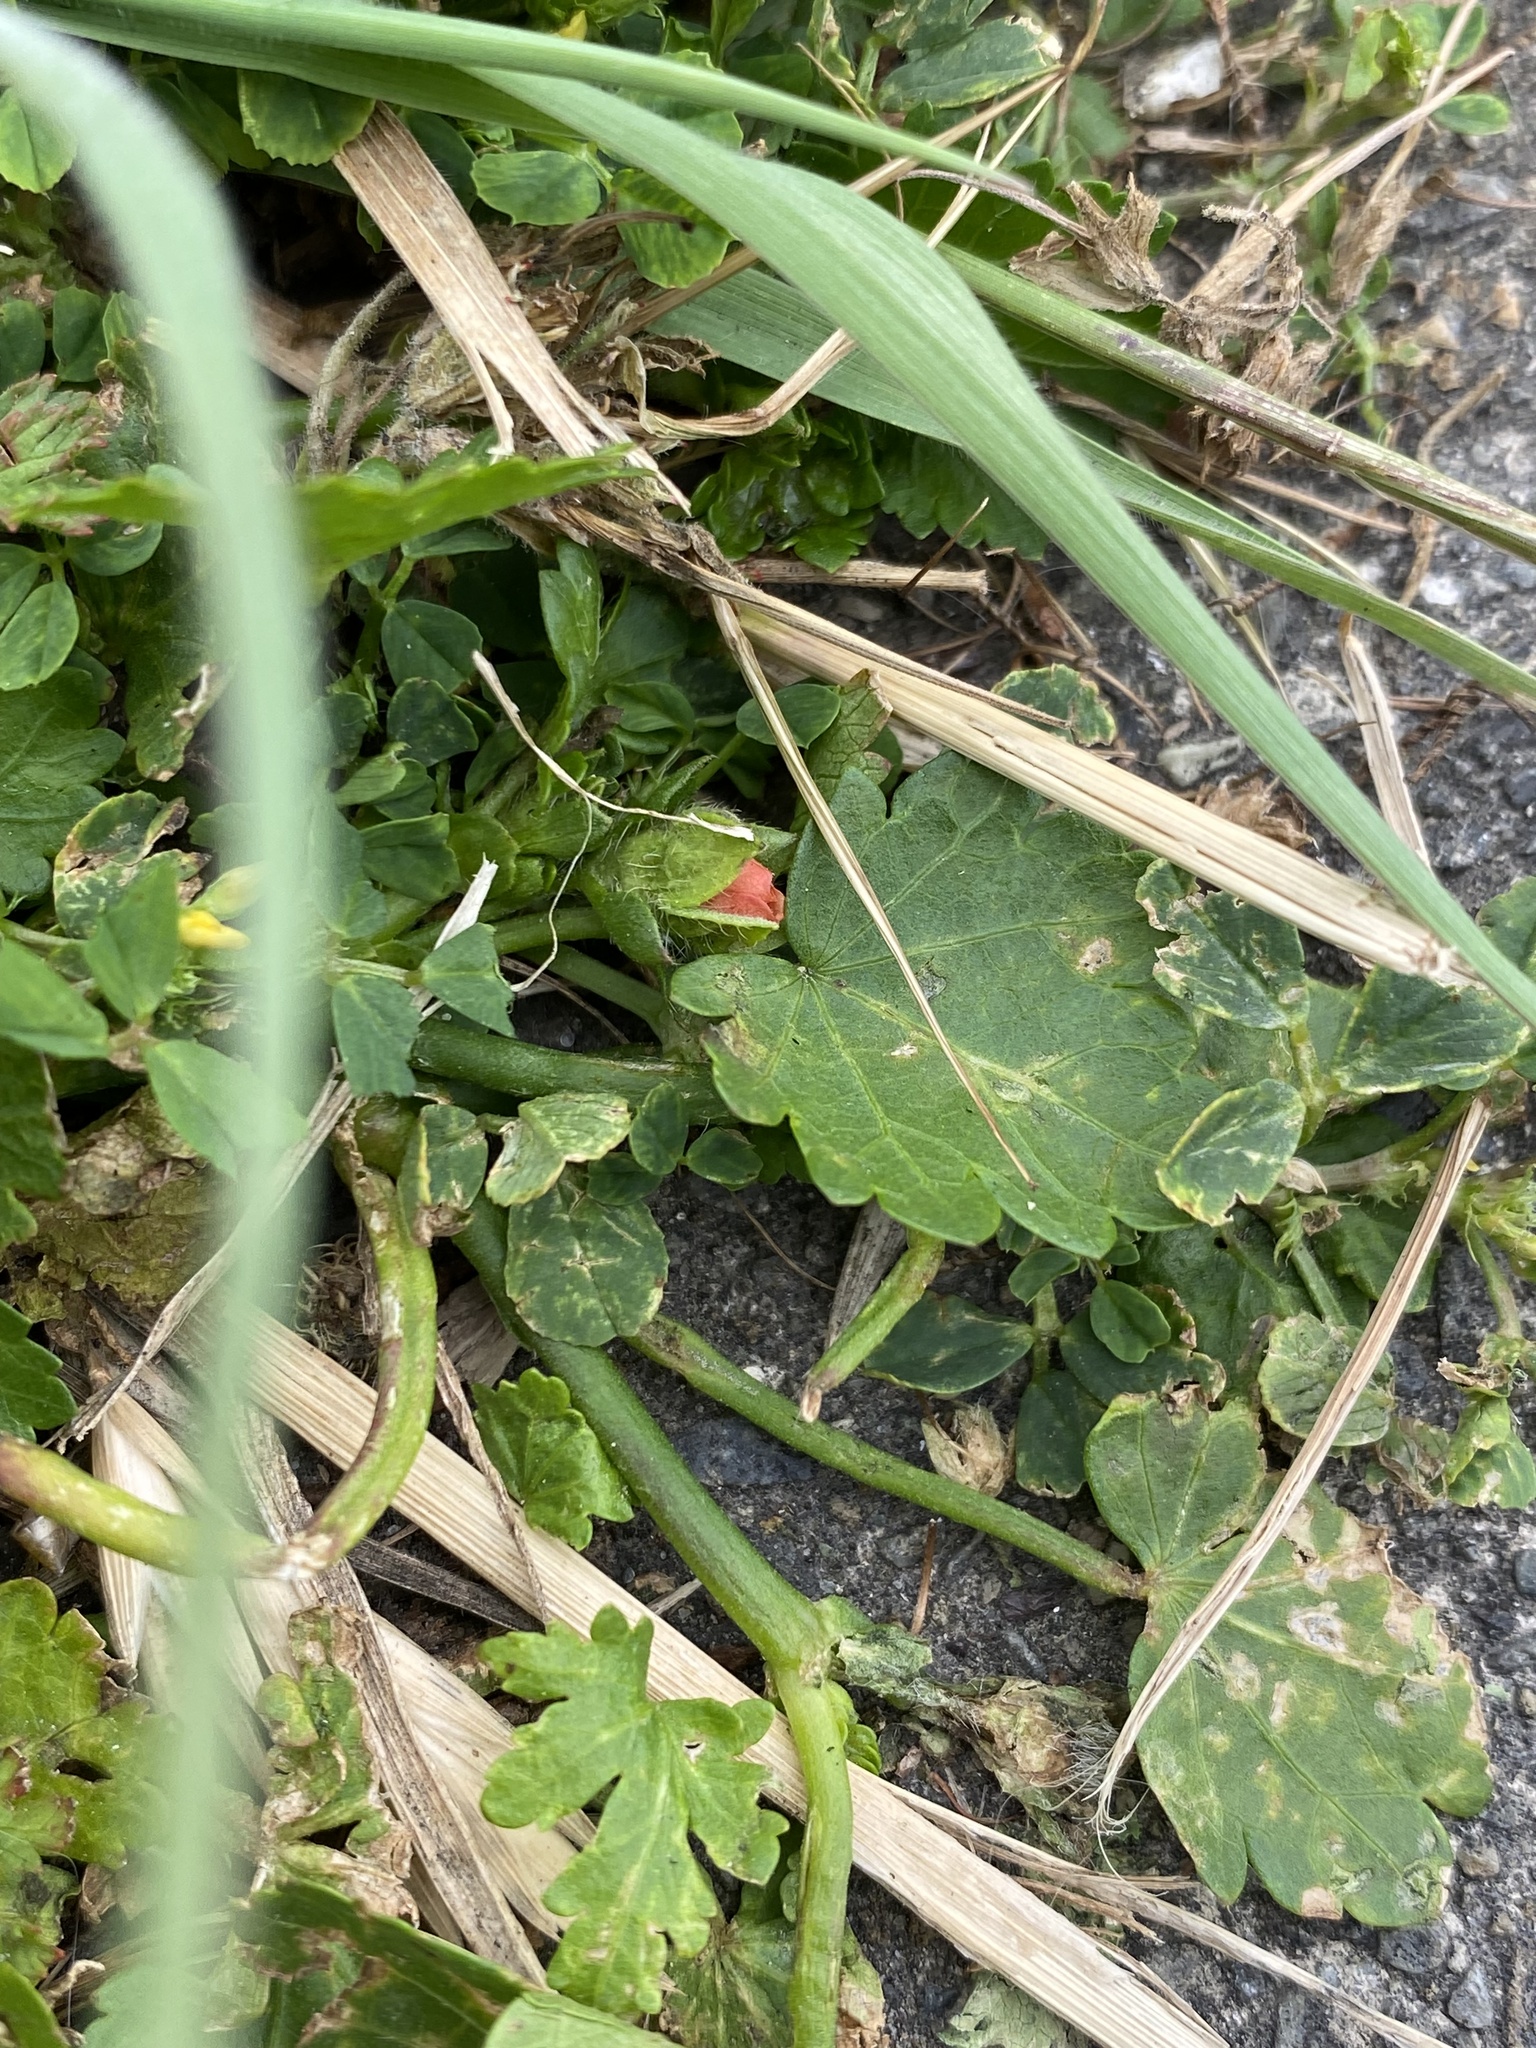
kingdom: Plantae
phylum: Tracheophyta
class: Magnoliopsida
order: Malvales
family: Malvaceae
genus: Modiola
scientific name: Modiola caroliniana
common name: Carolina bristlemallow
